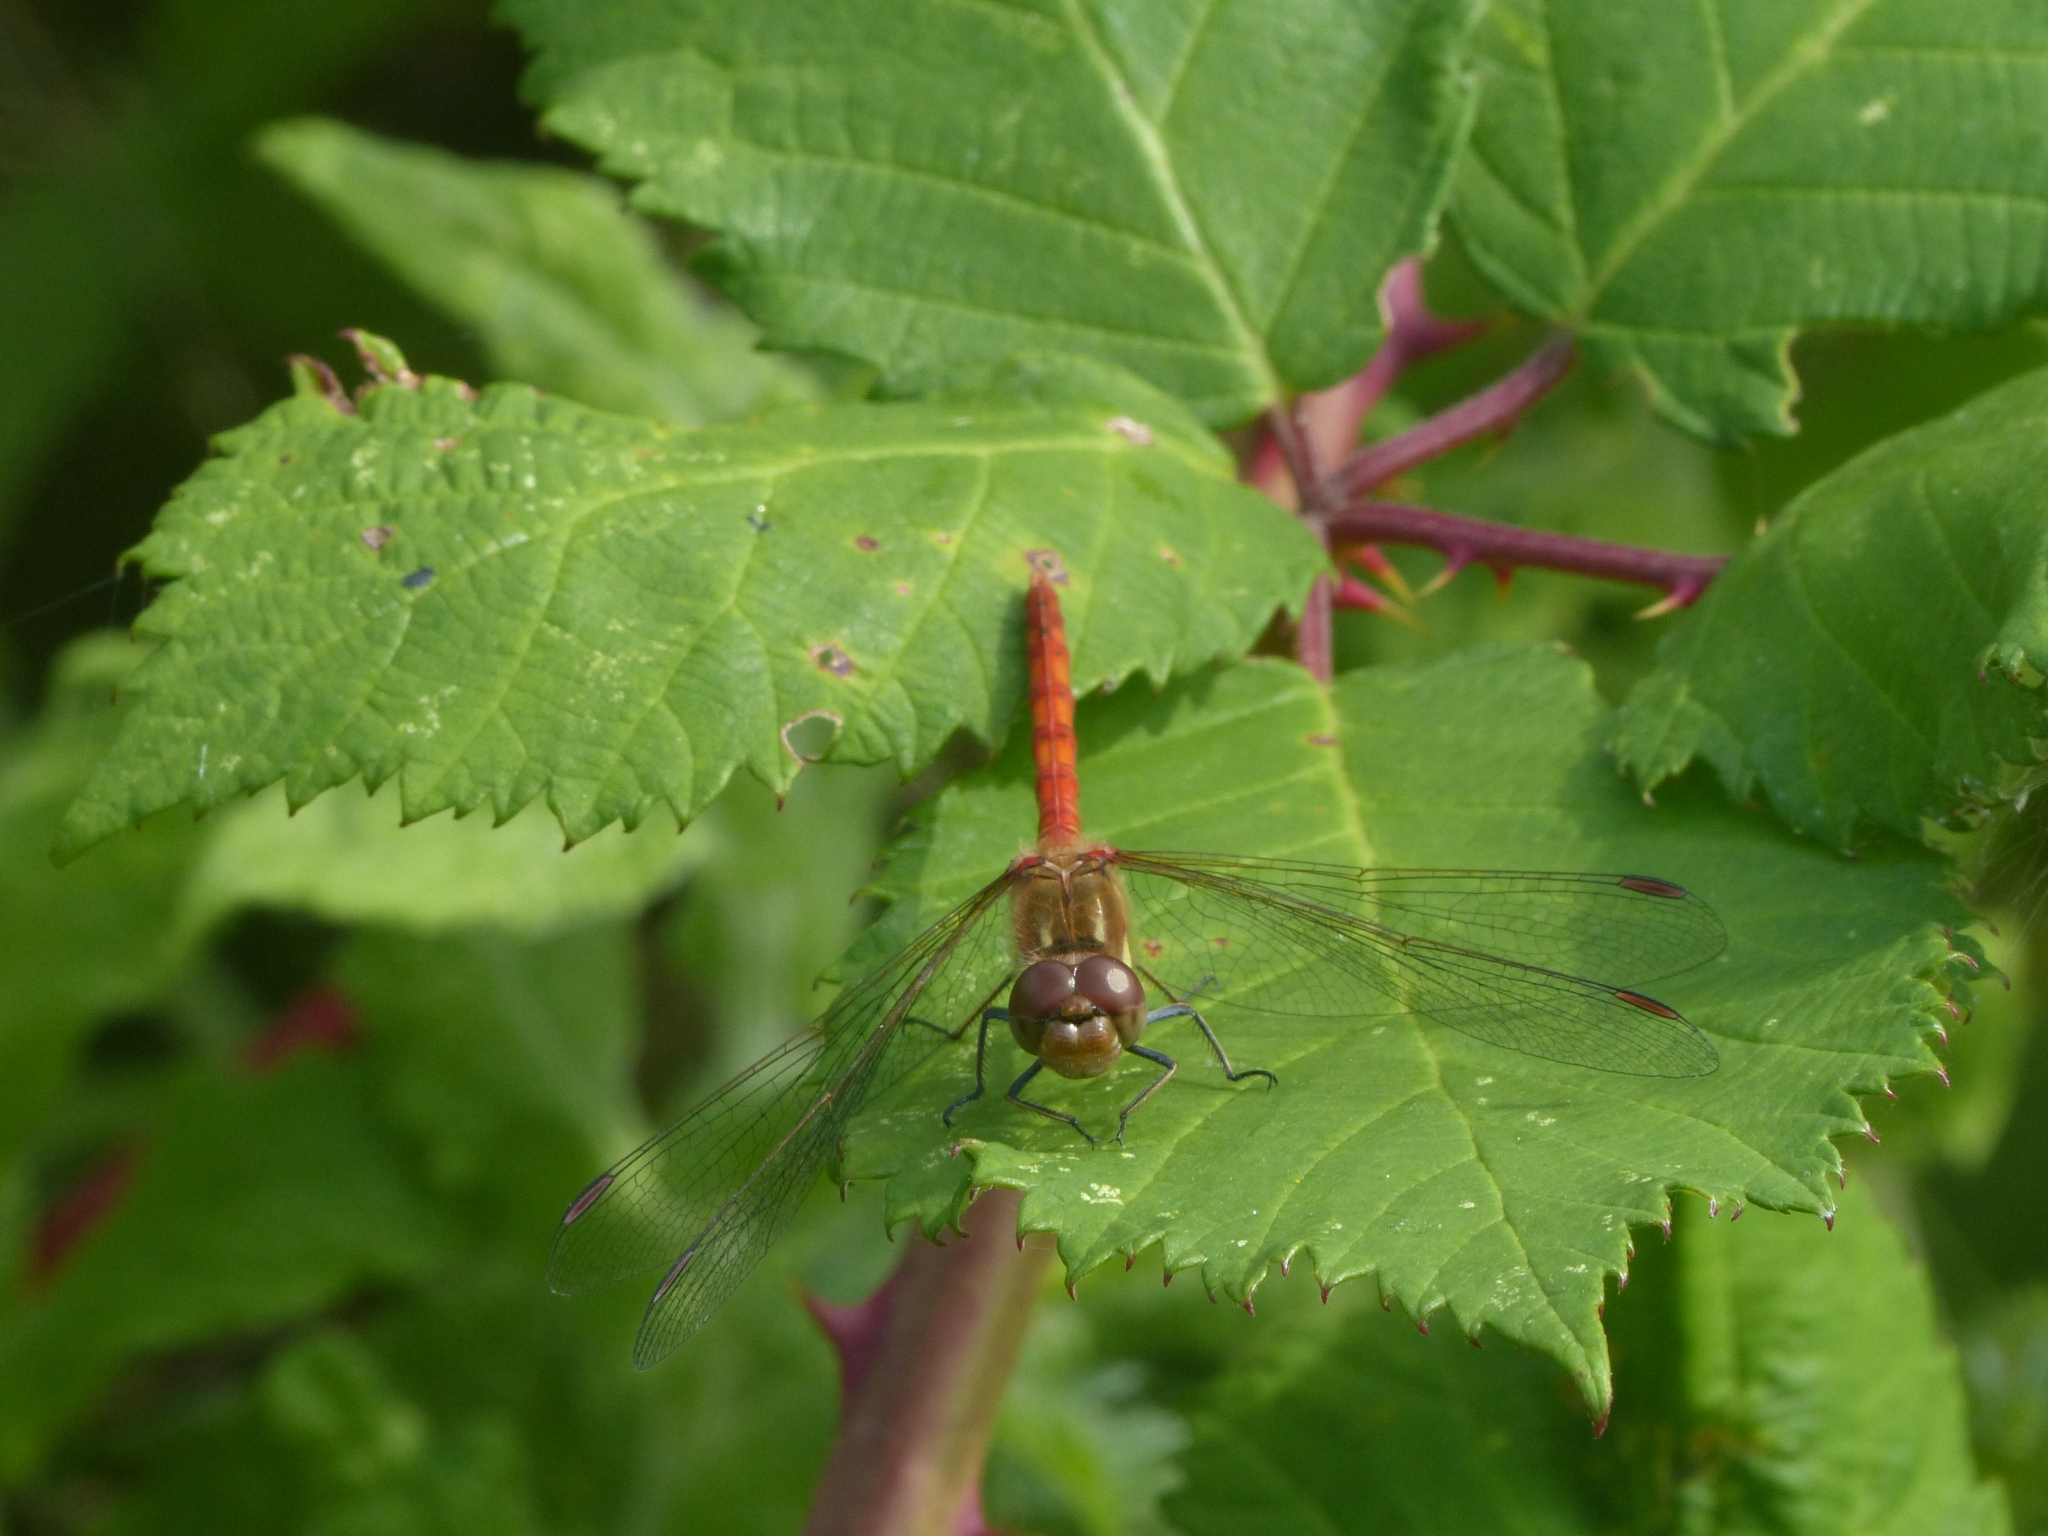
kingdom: Animalia
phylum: Arthropoda
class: Insecta
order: Odonata
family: Libellulidae
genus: Sympetrum
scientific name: Sympetrum striolatum
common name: Common darter
